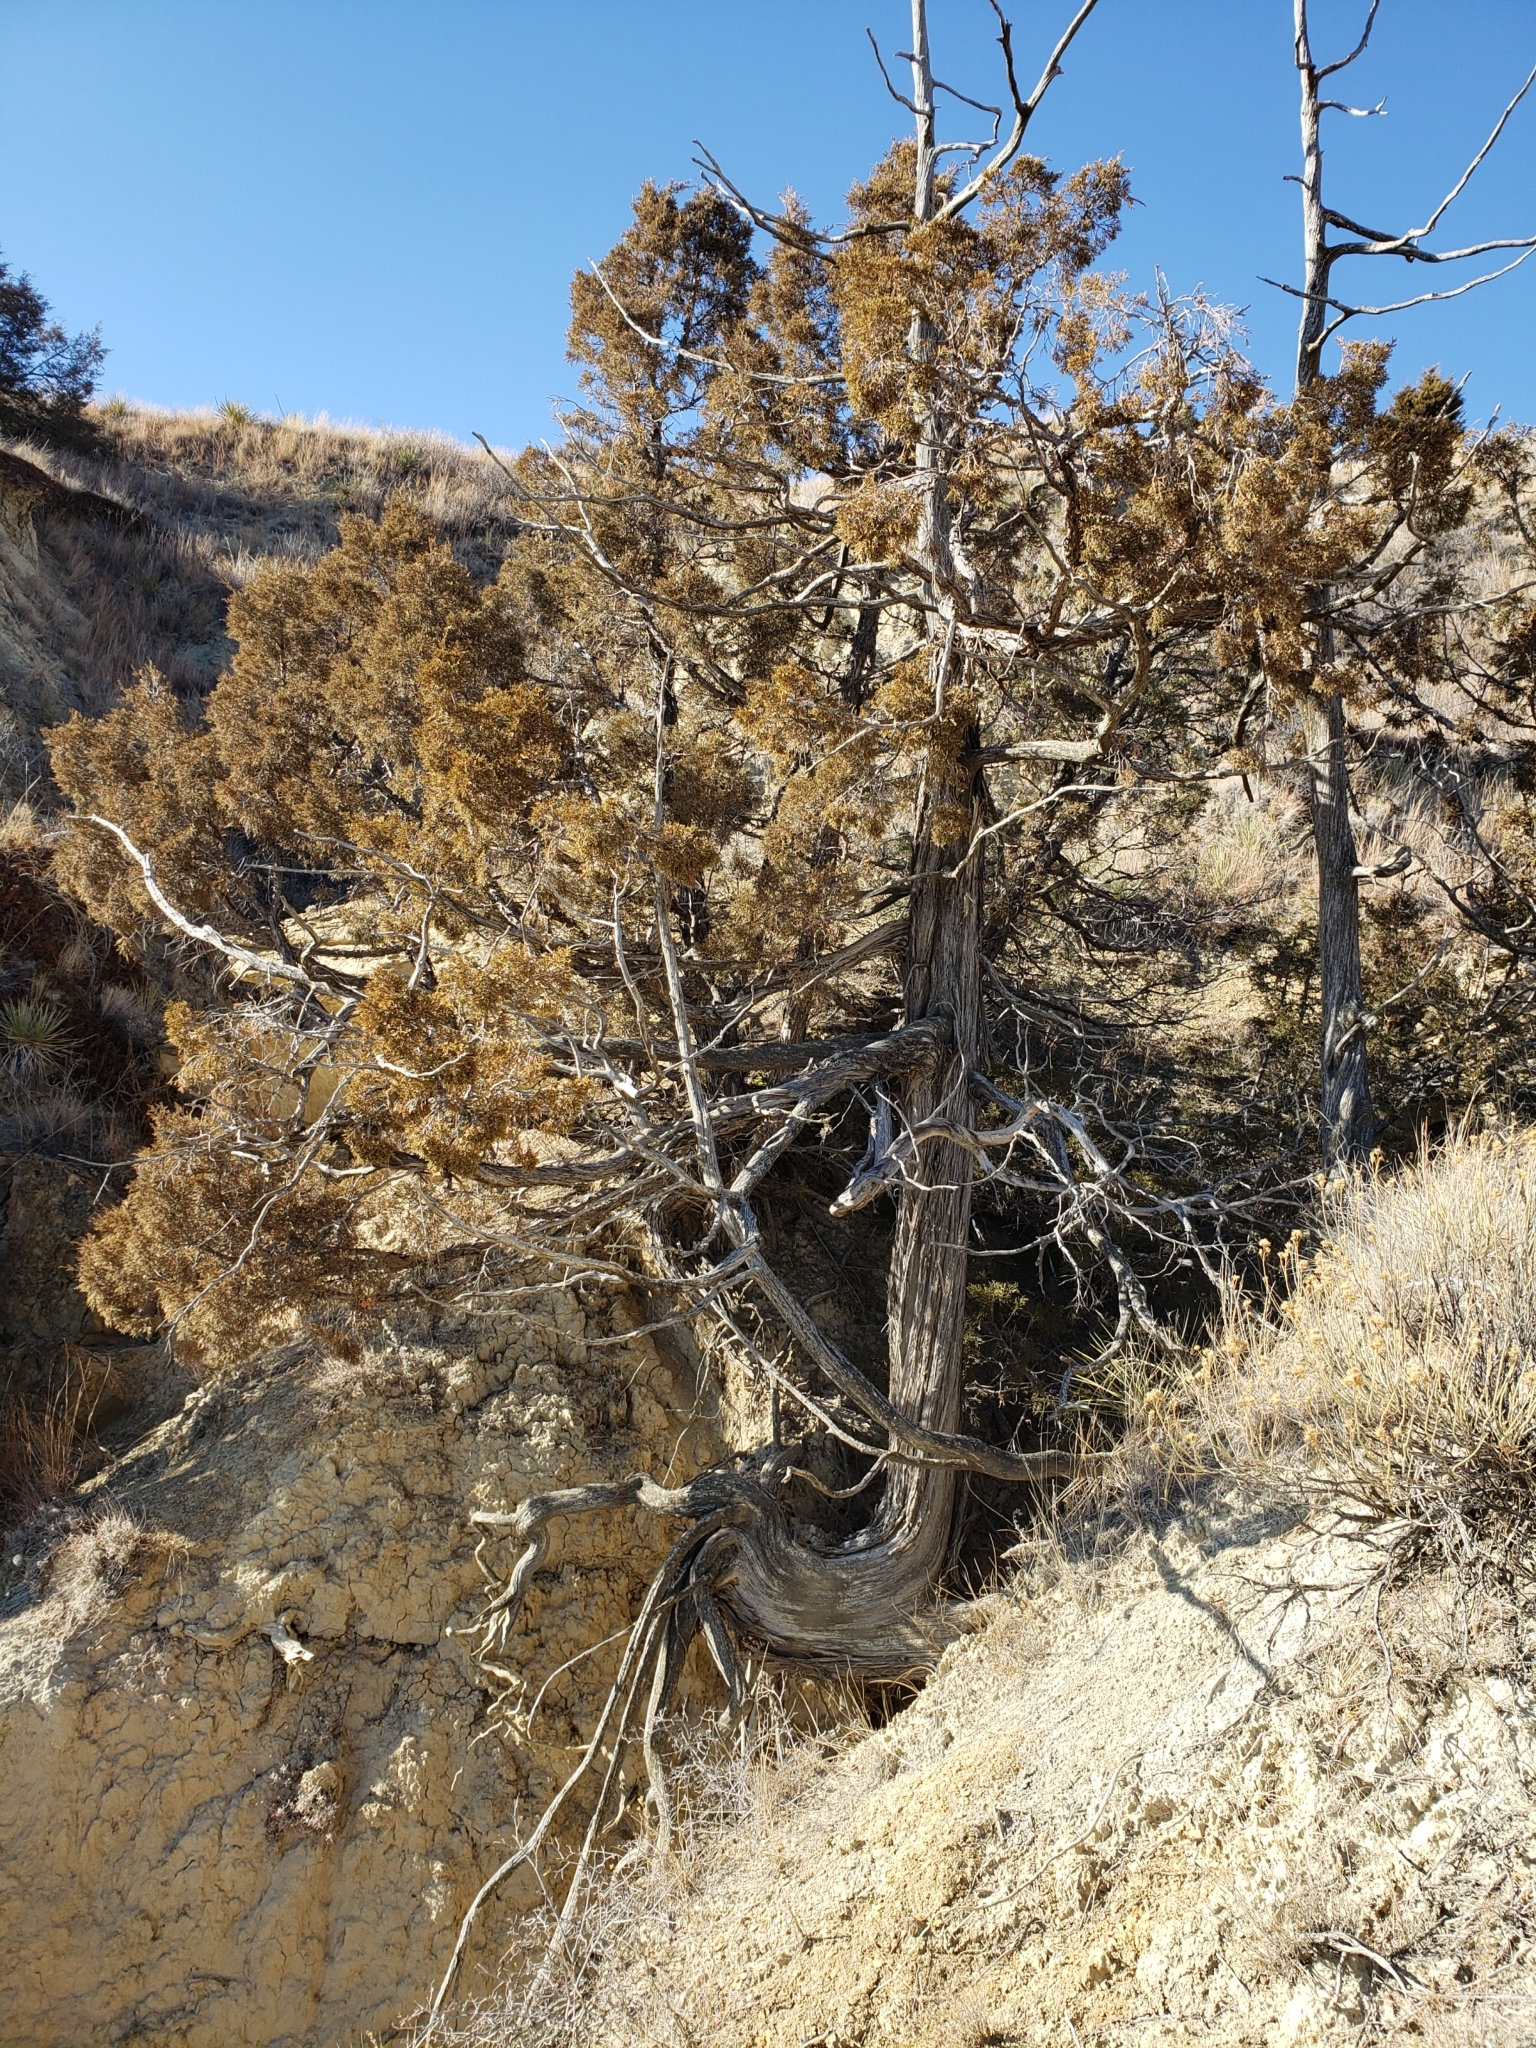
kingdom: Plantae
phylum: Tracheophyta
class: Pinopsida
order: Pinales
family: Cupressaceae
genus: Juniperus
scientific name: Juniperus scopulorum
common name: Rocky mountain juniper
